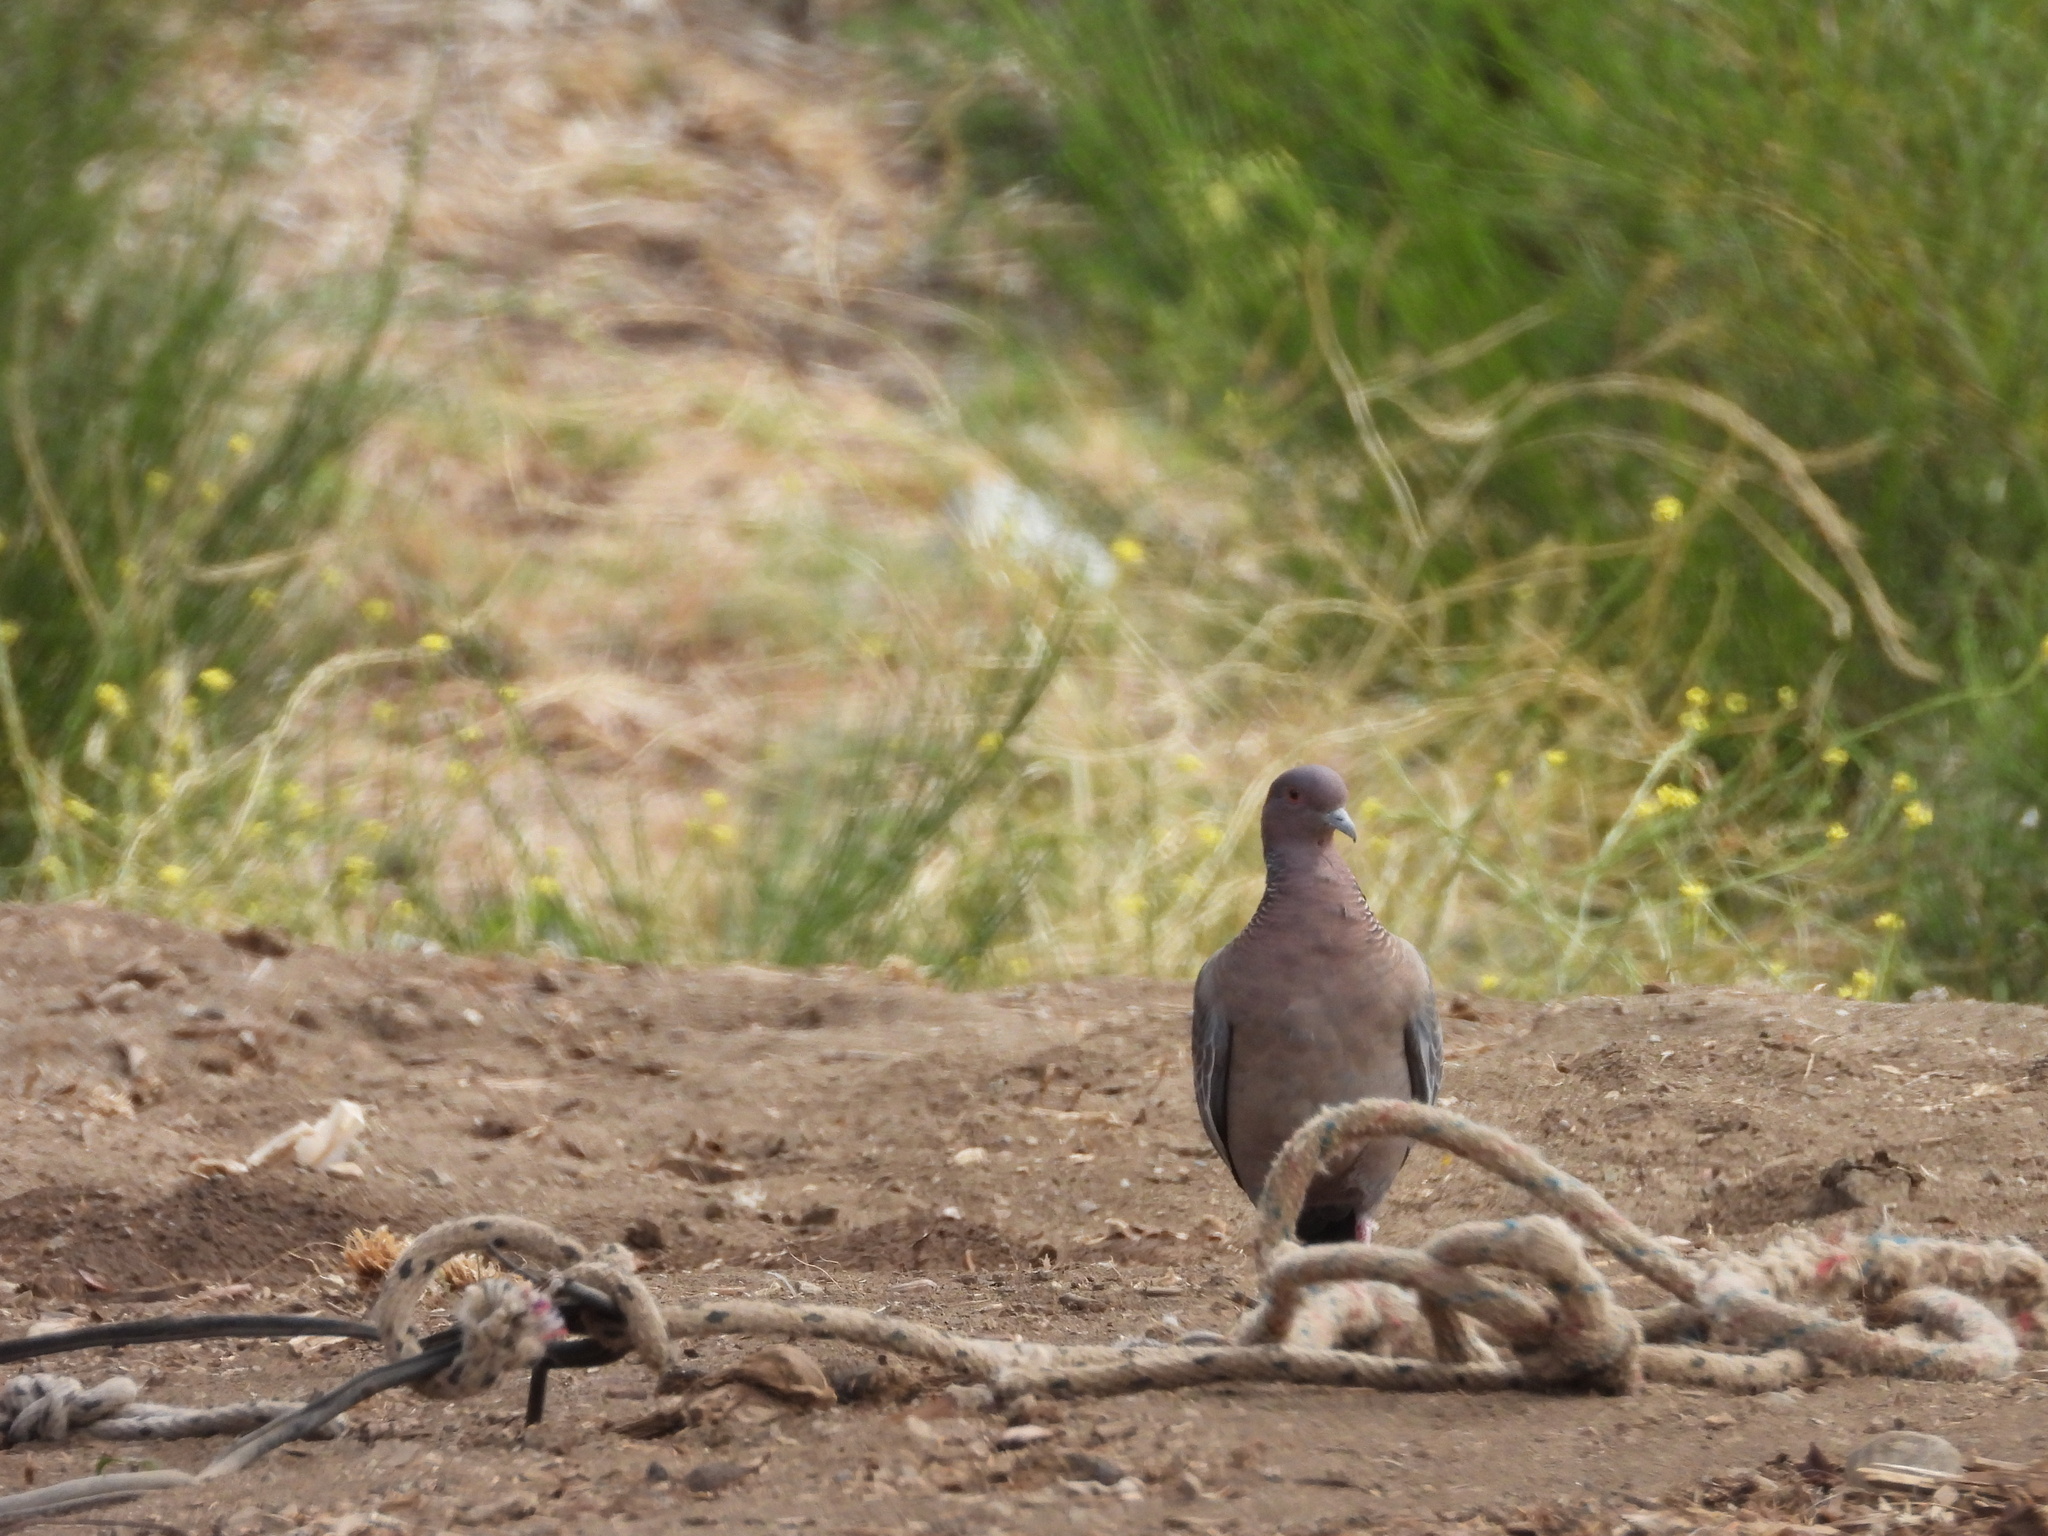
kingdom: Animalia
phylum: Chordata
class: Aves
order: Columbiformes
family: Columbidae
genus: Patagioenas
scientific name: Patagioenas picazuro
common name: Picazuro pigeon
